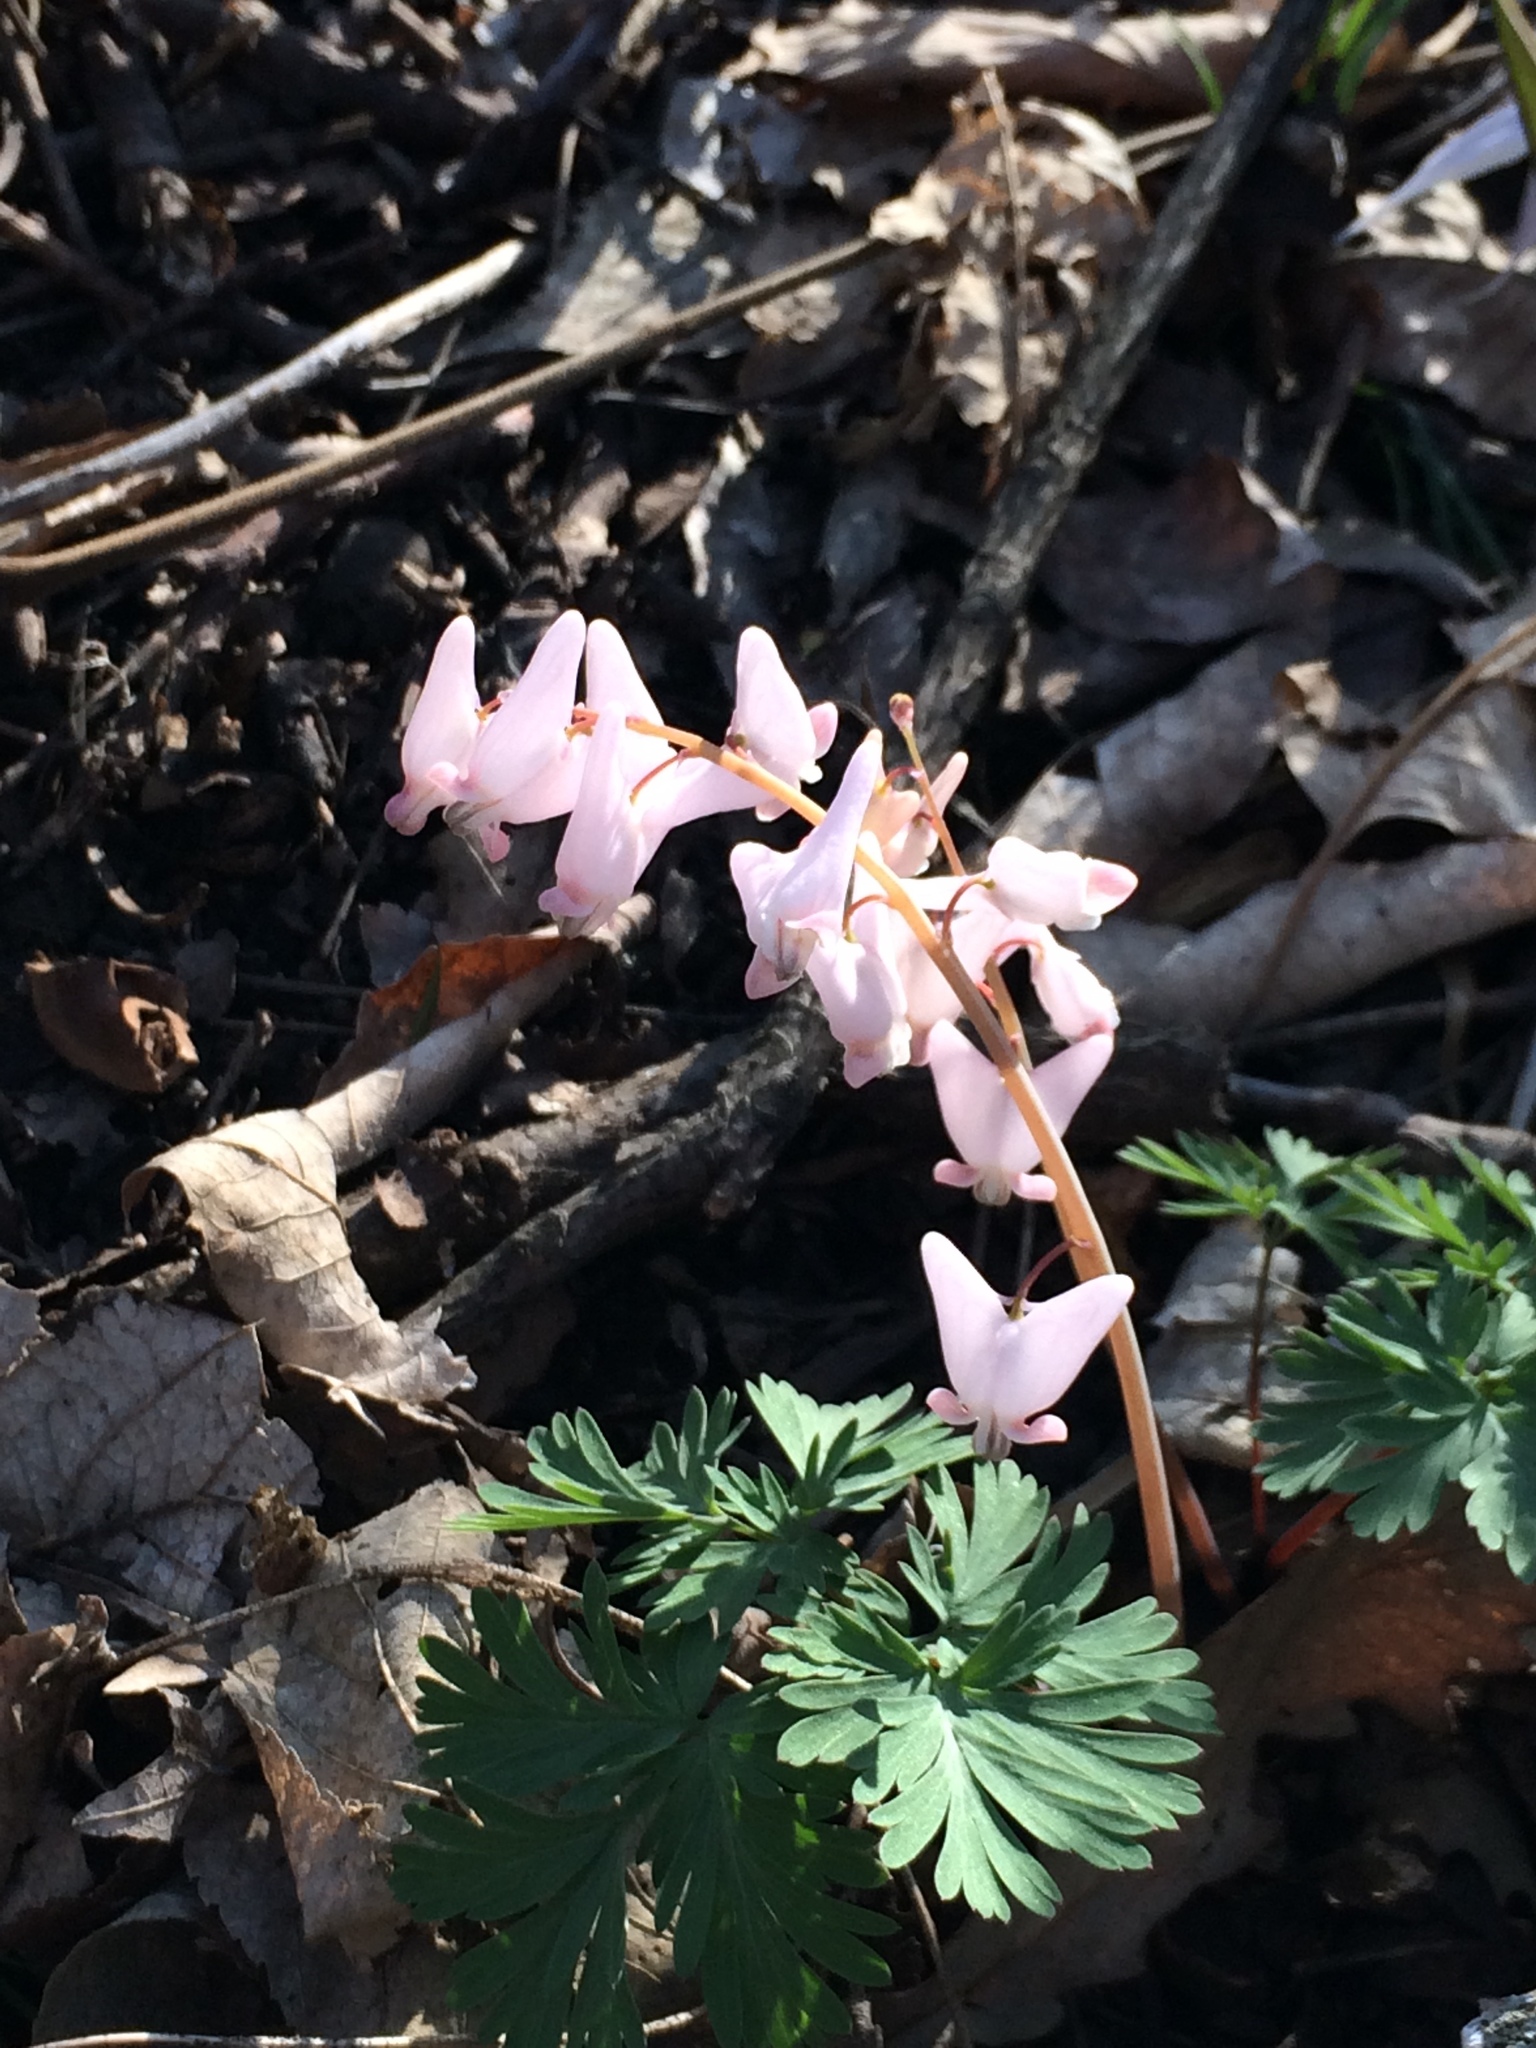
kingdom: Plantae
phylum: Tracheophyta
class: Magnoliopsida
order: Ranunculales
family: Papaveraceae
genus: Dicentra
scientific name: Dicentra cucullaria
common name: Dutchman's breeches
